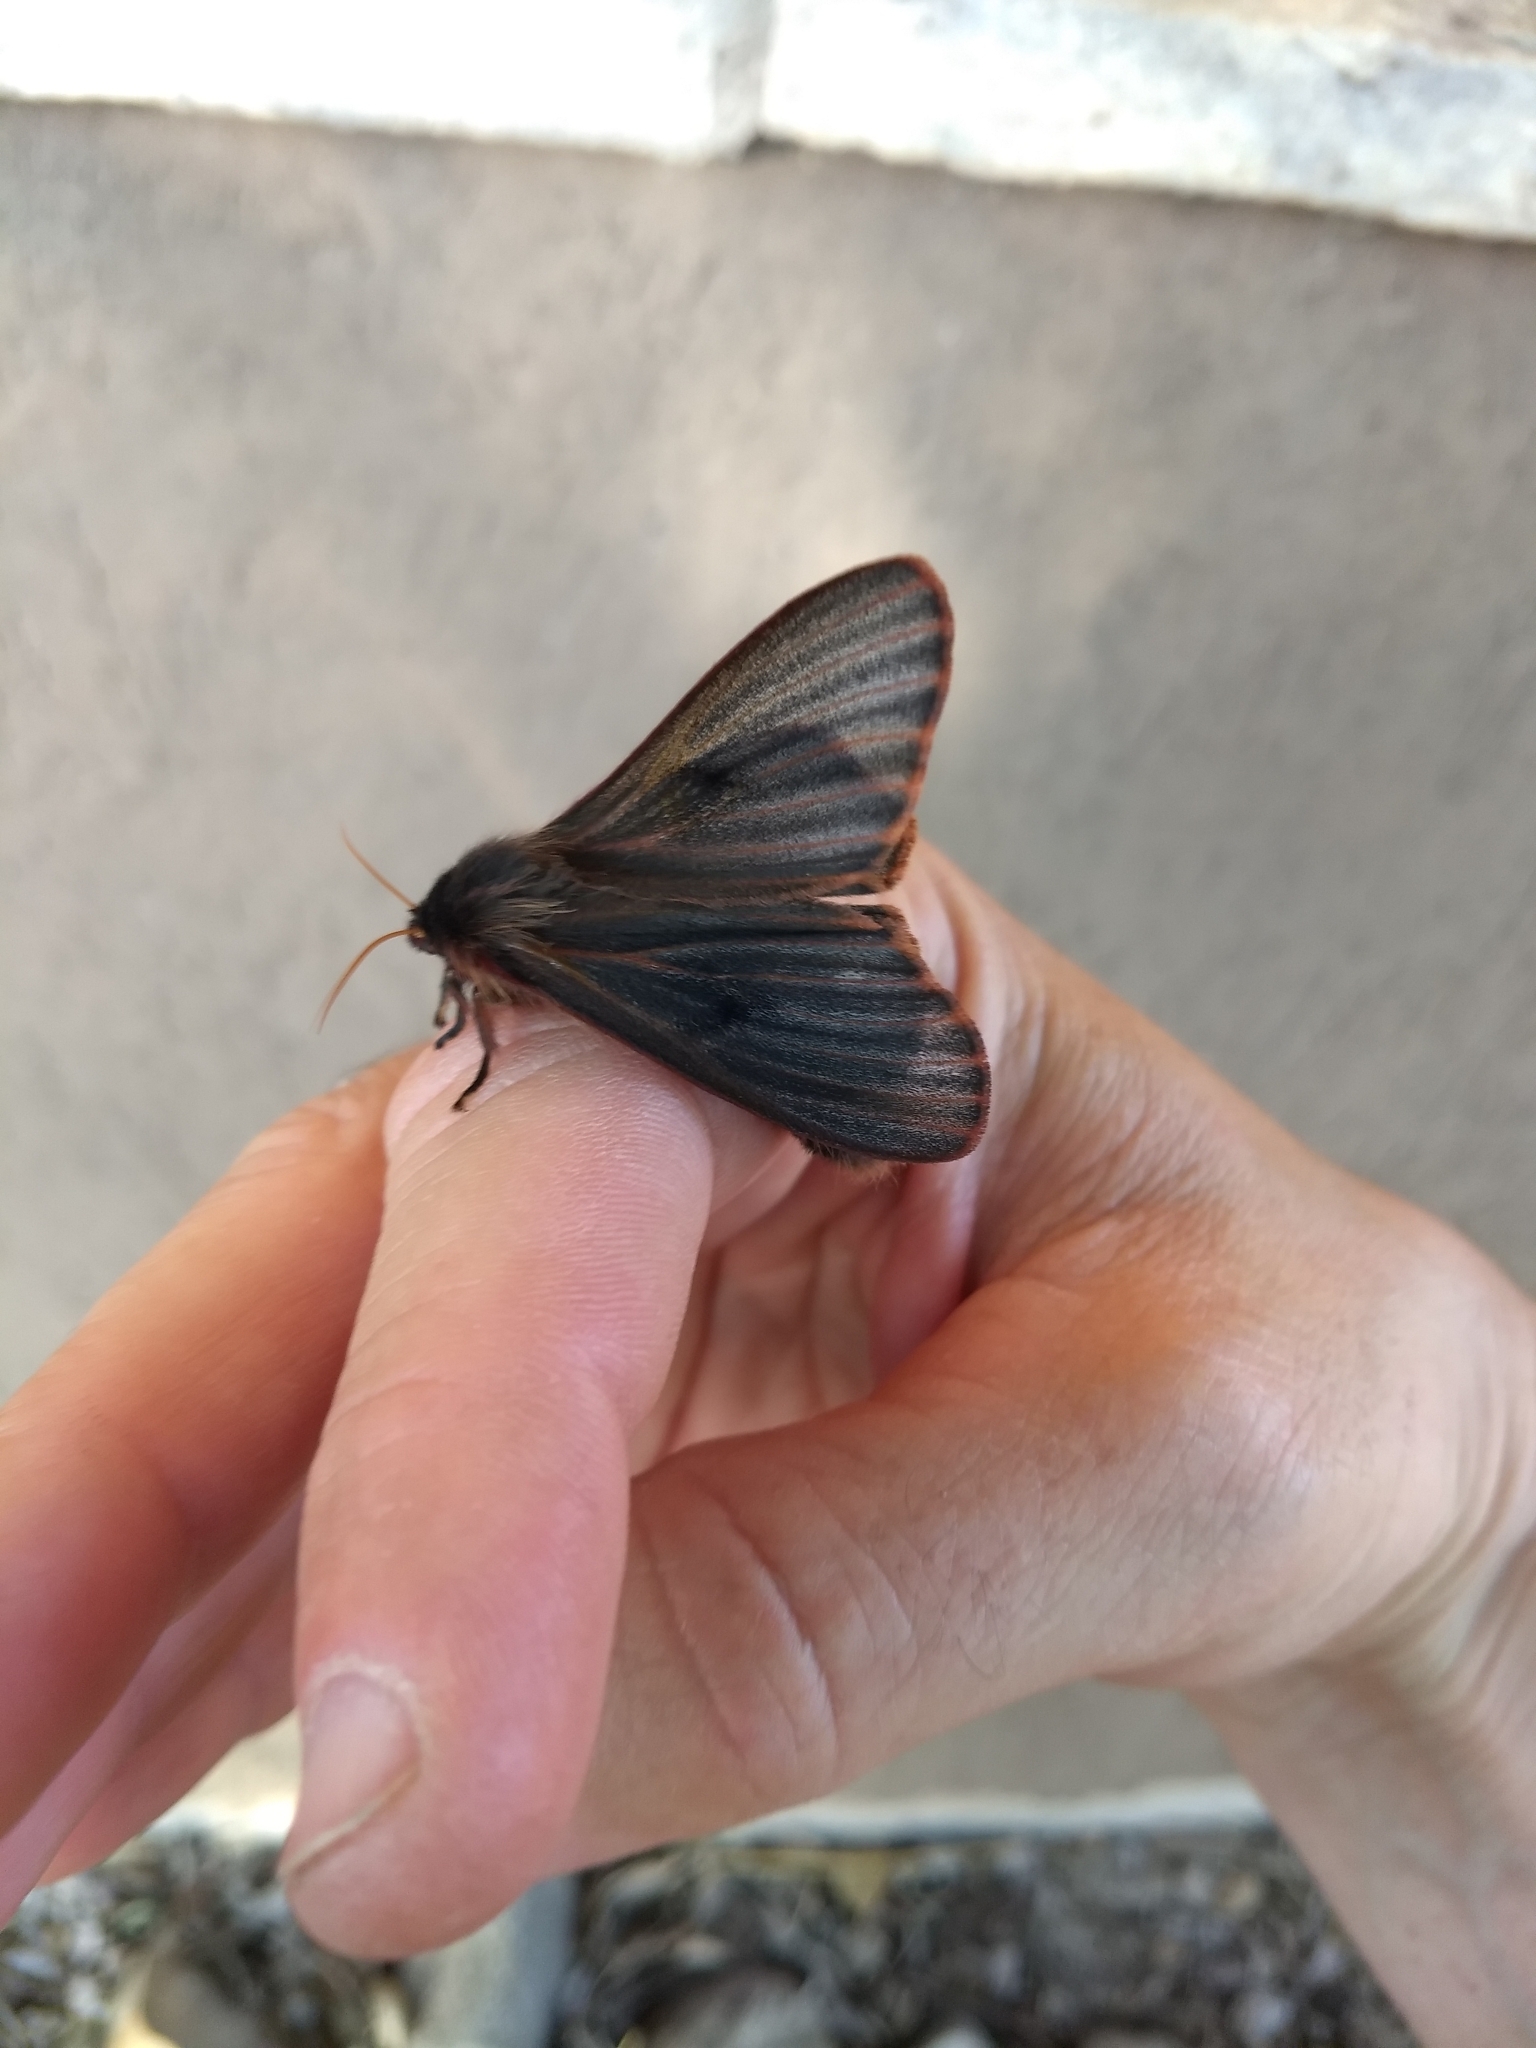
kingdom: Animalia
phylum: Arthropoda
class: Insecta
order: Lepidoptera
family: Saturniidae
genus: Heliconisa
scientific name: Heliconisa pagenstecheri
